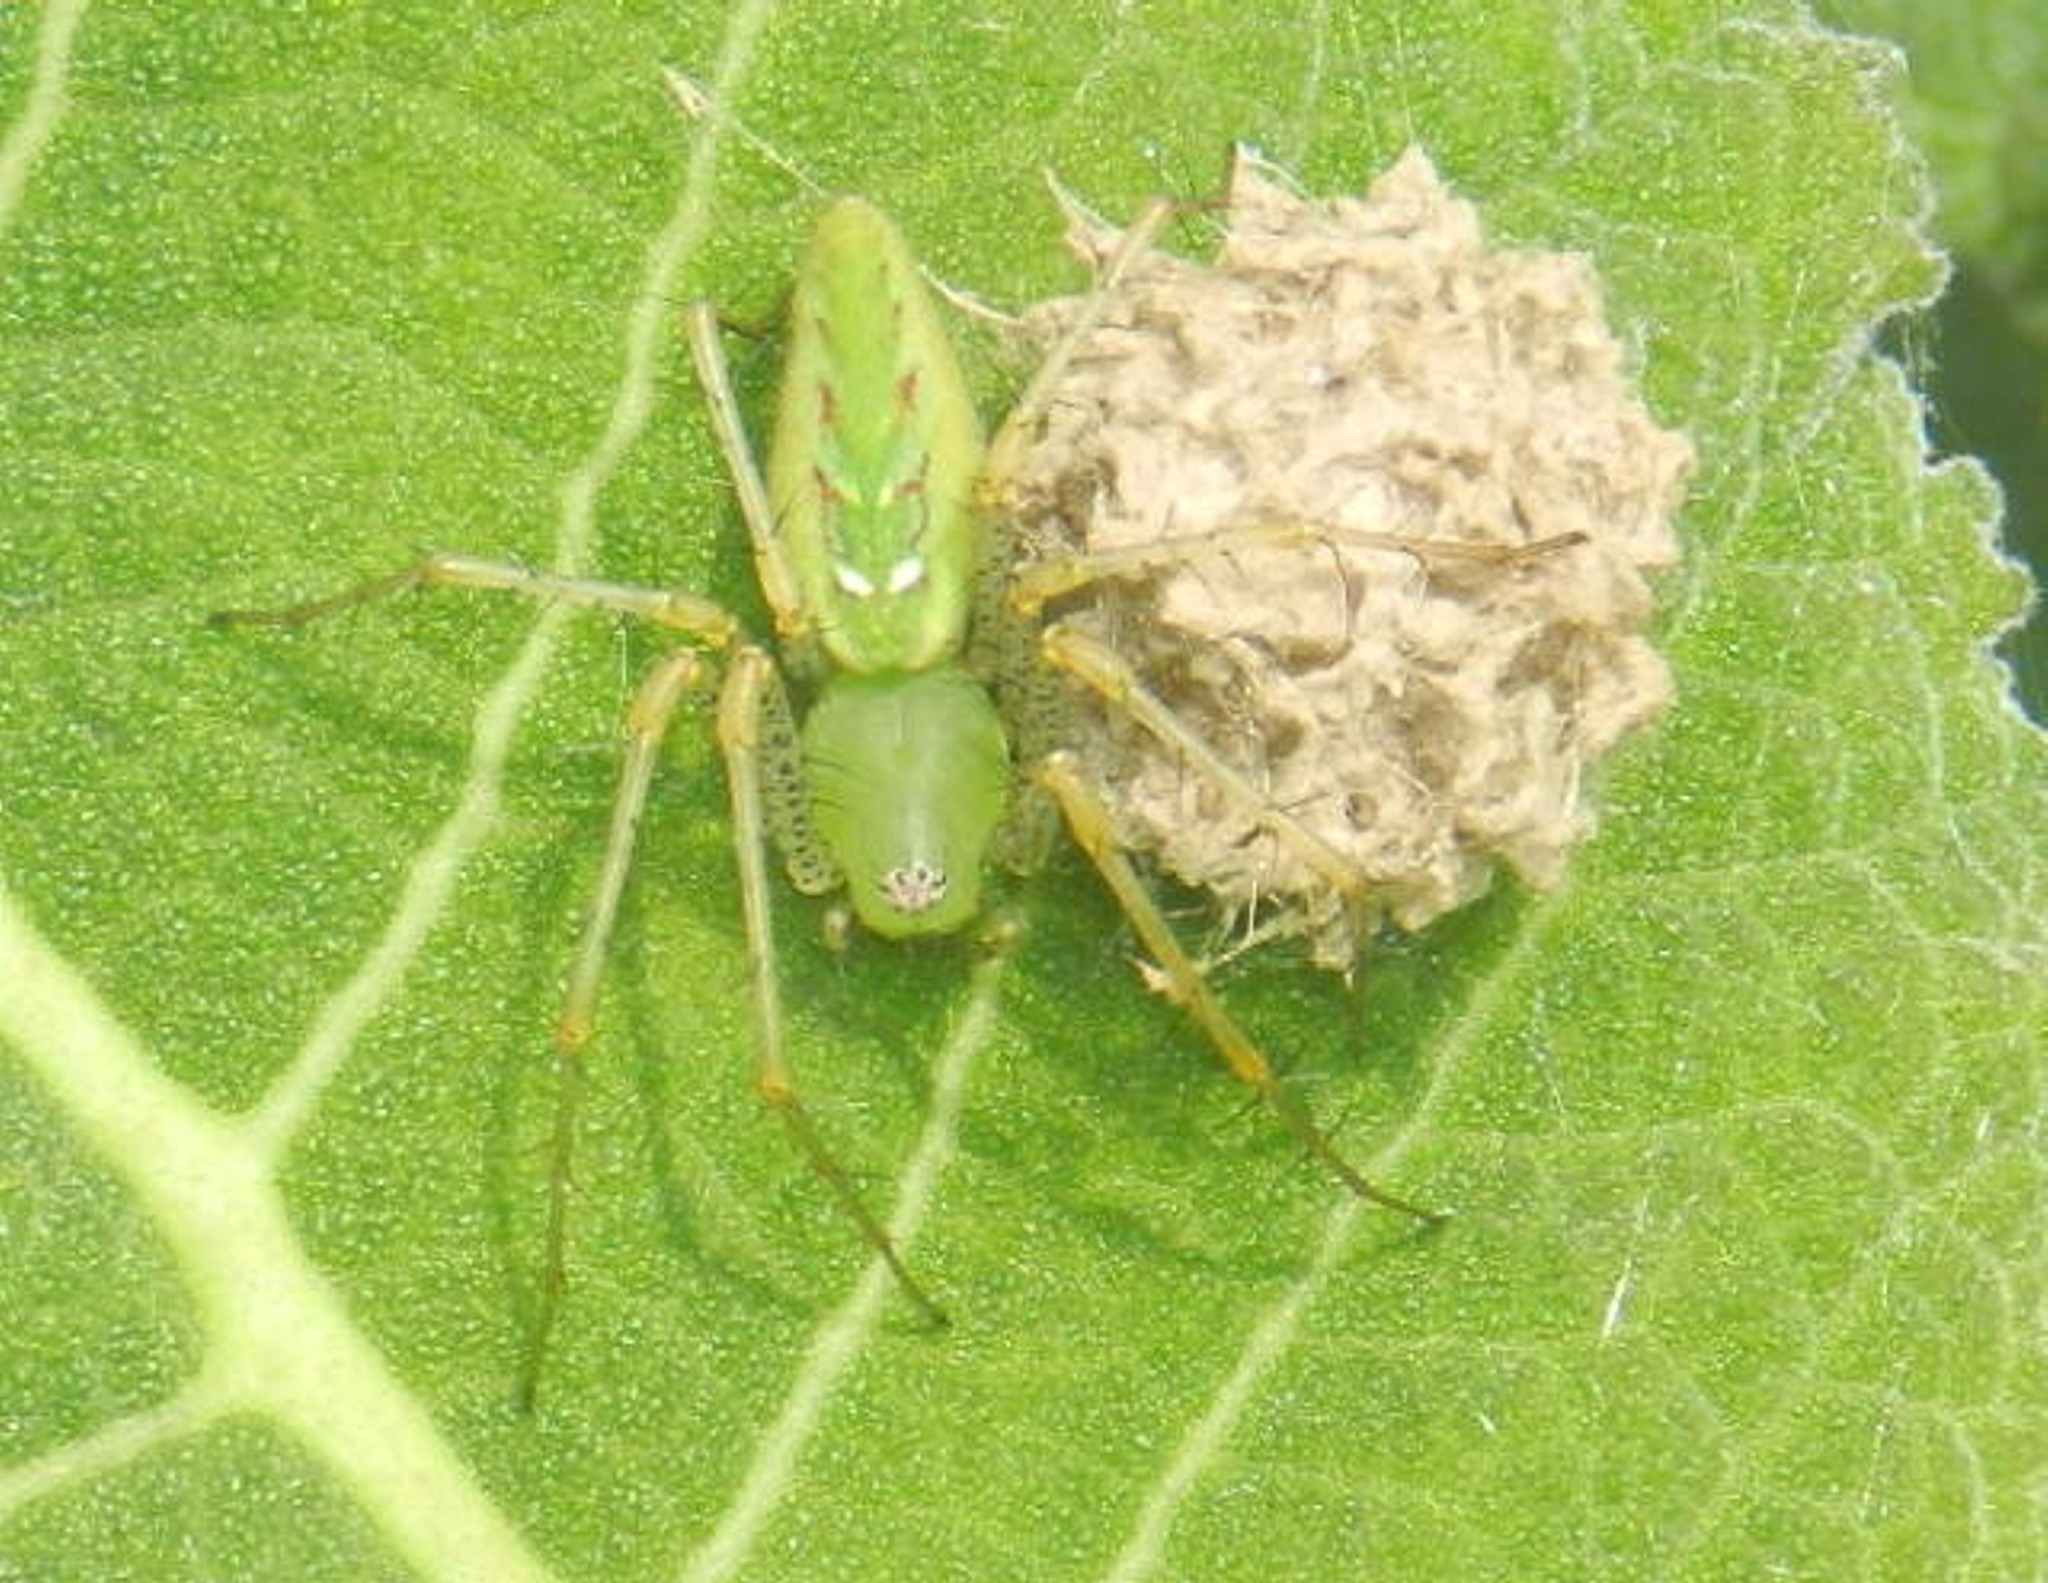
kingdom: Animalia
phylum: Arthropoda
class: Arachnida
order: Araneae
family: Oxyopidae
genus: Peucetia
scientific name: Peucetia viridans
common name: Lynx spiders
